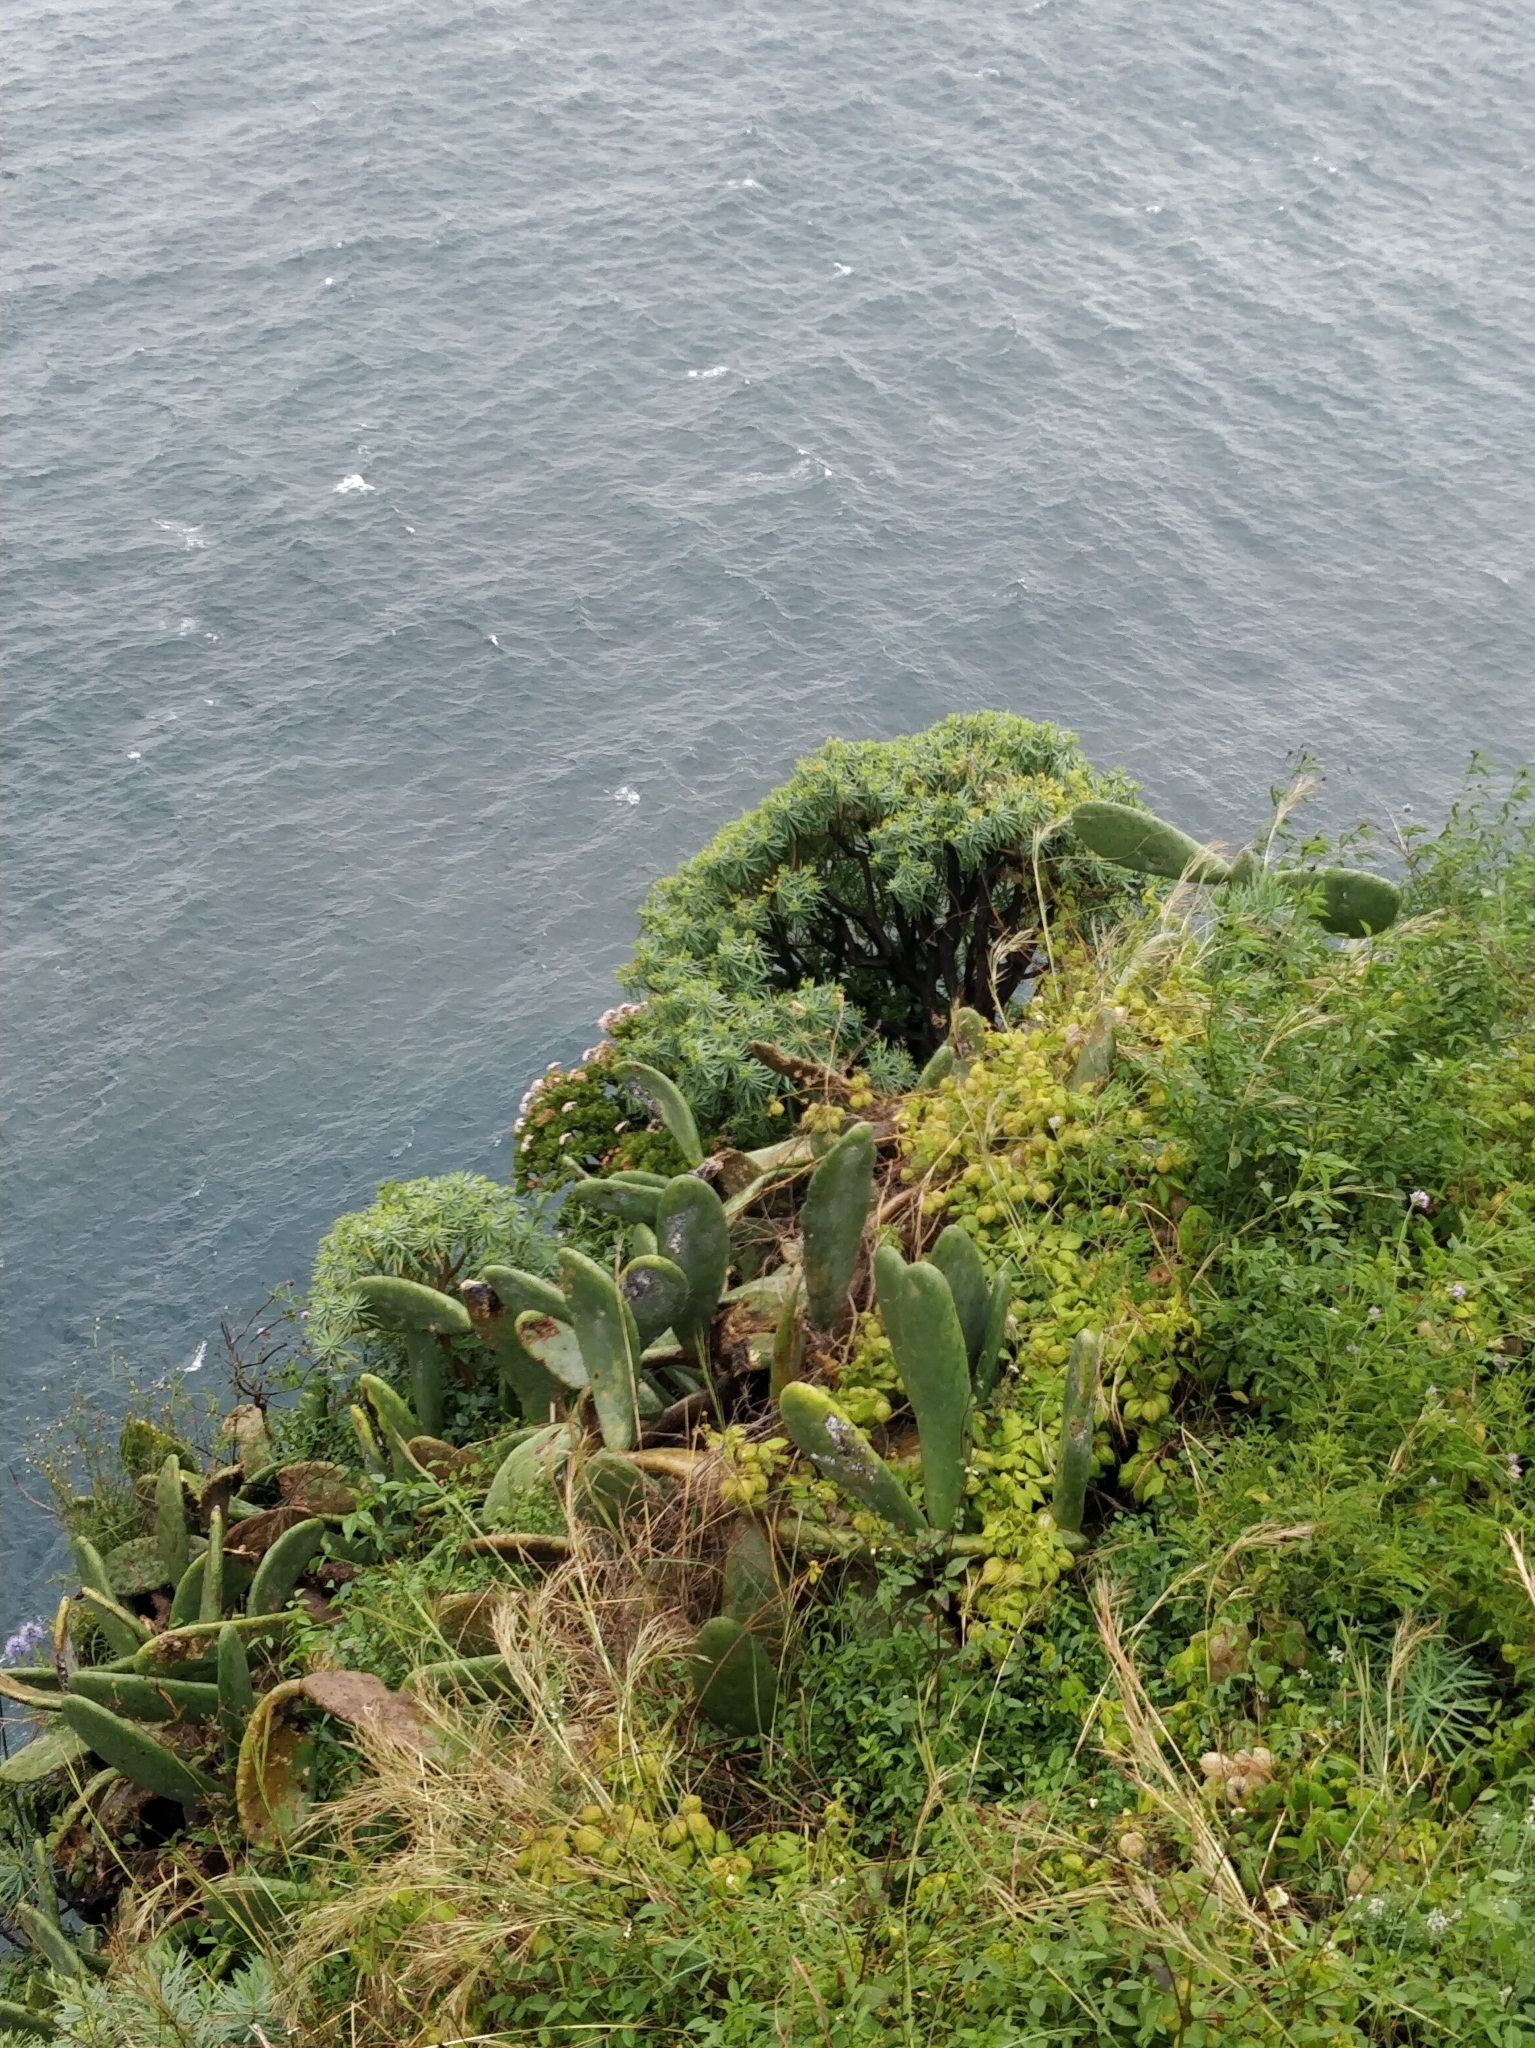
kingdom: Plantae
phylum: Tracheophyta
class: Magnoliopsida
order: Saxifragales
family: Crassulaceae
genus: Crassula
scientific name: Crassula ovata
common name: Jade plant
